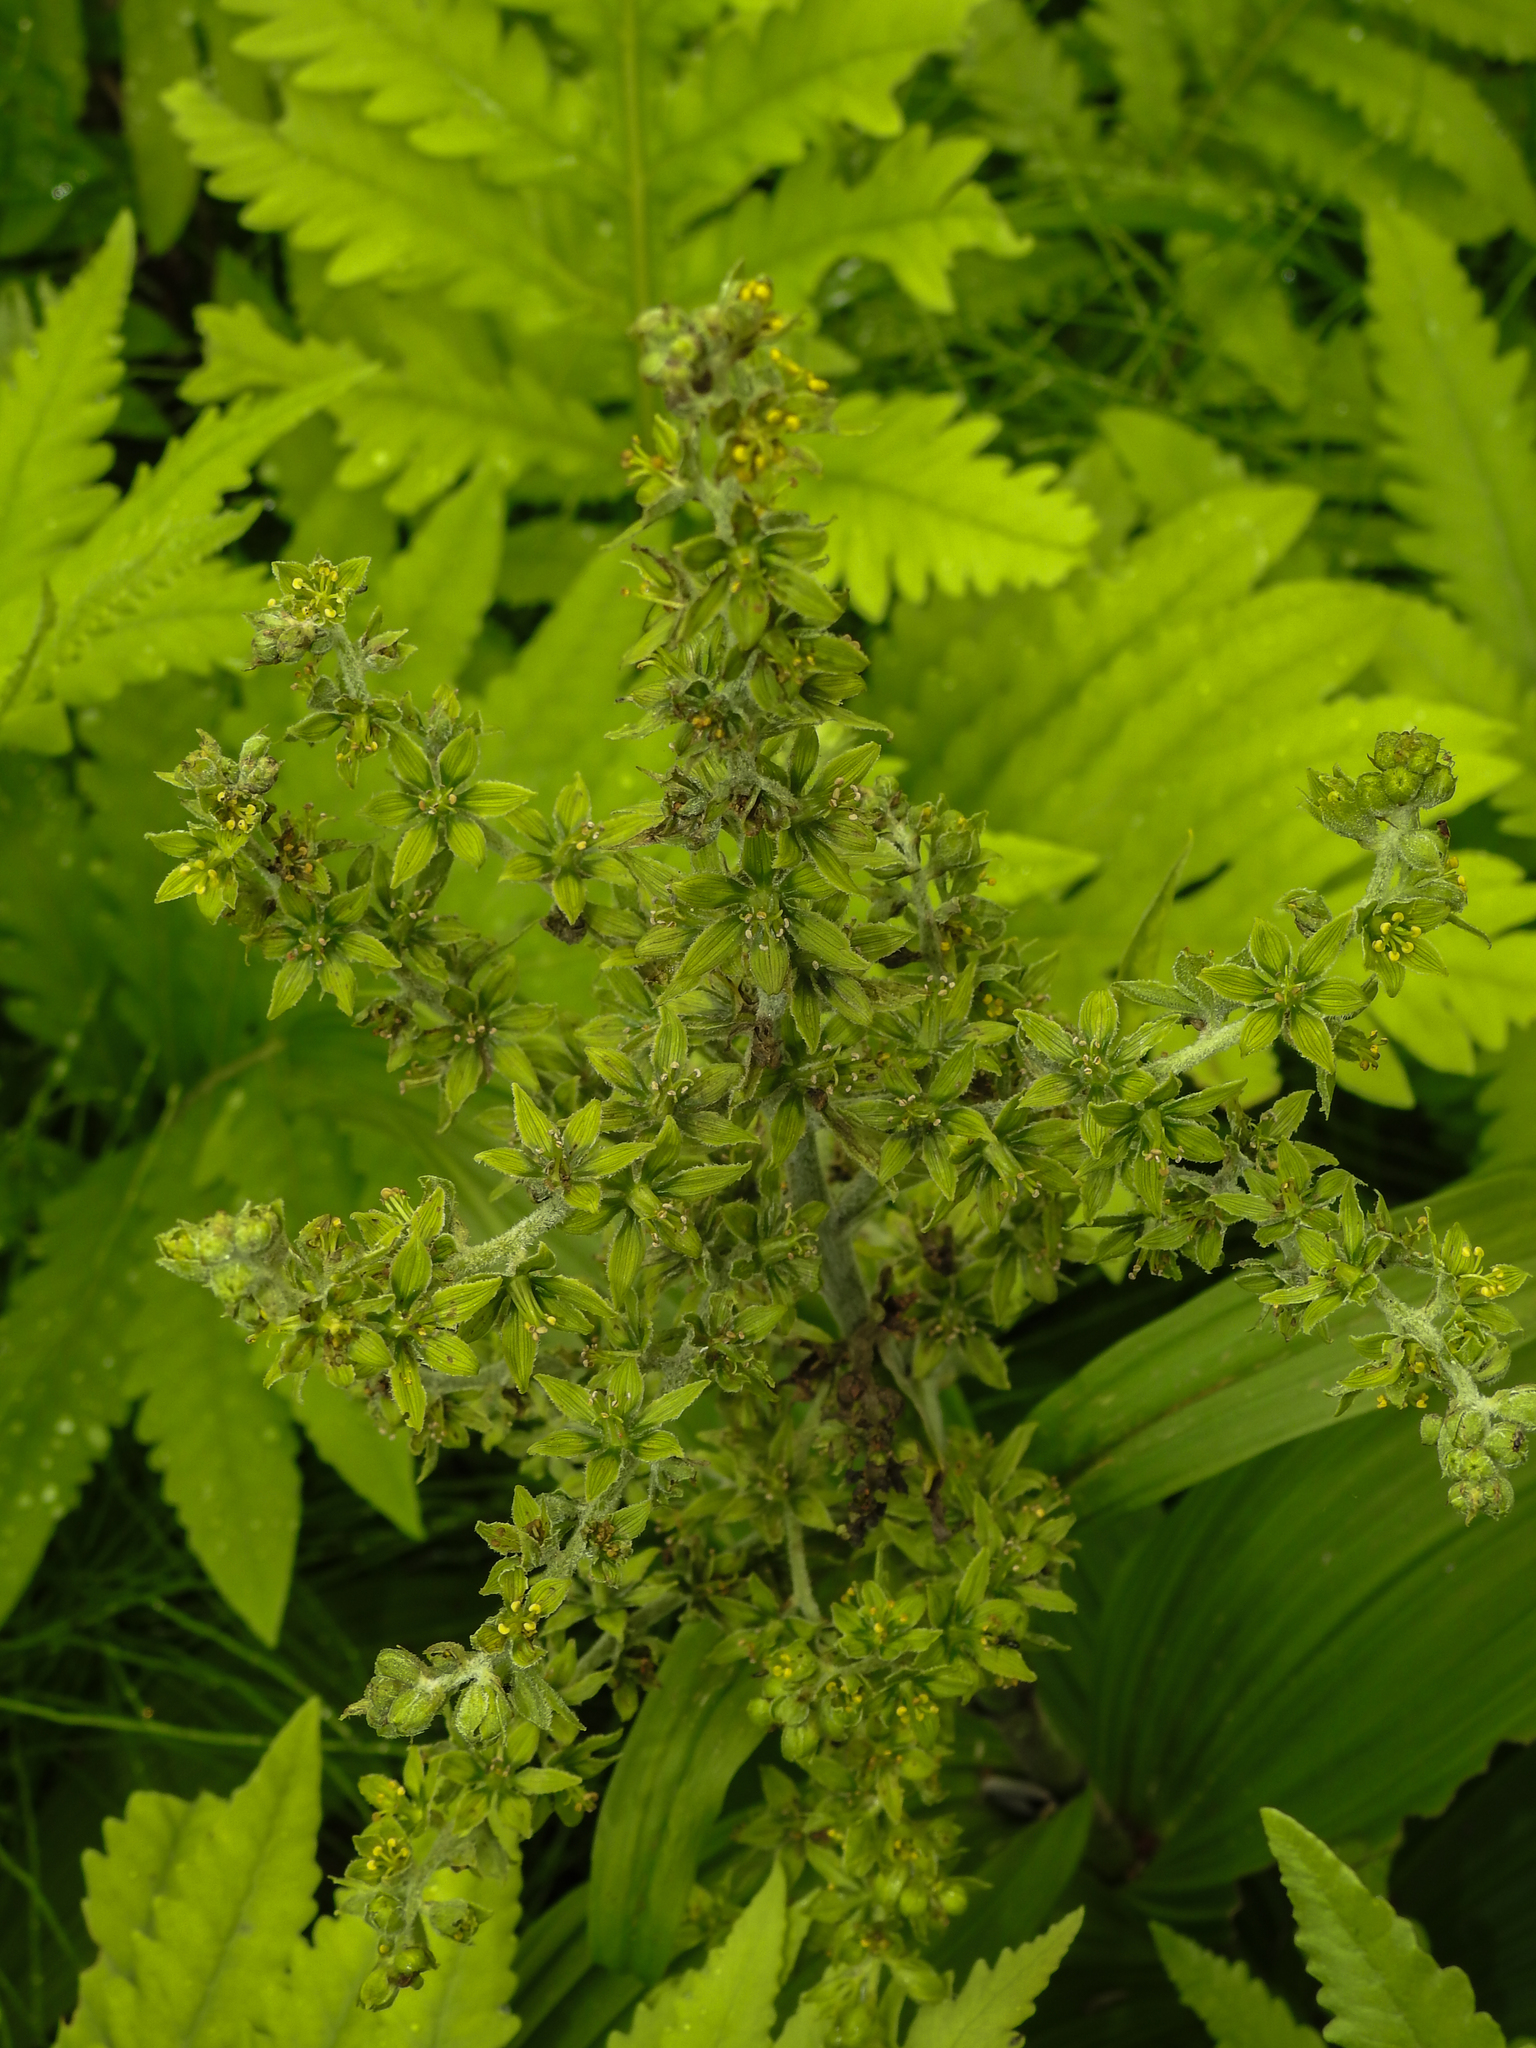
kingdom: Plantae
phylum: Tracheophyta
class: Liliopsida
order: Liliales
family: Melanthiaceae
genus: Veratrum
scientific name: Veratrum viride
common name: American false hellebore
